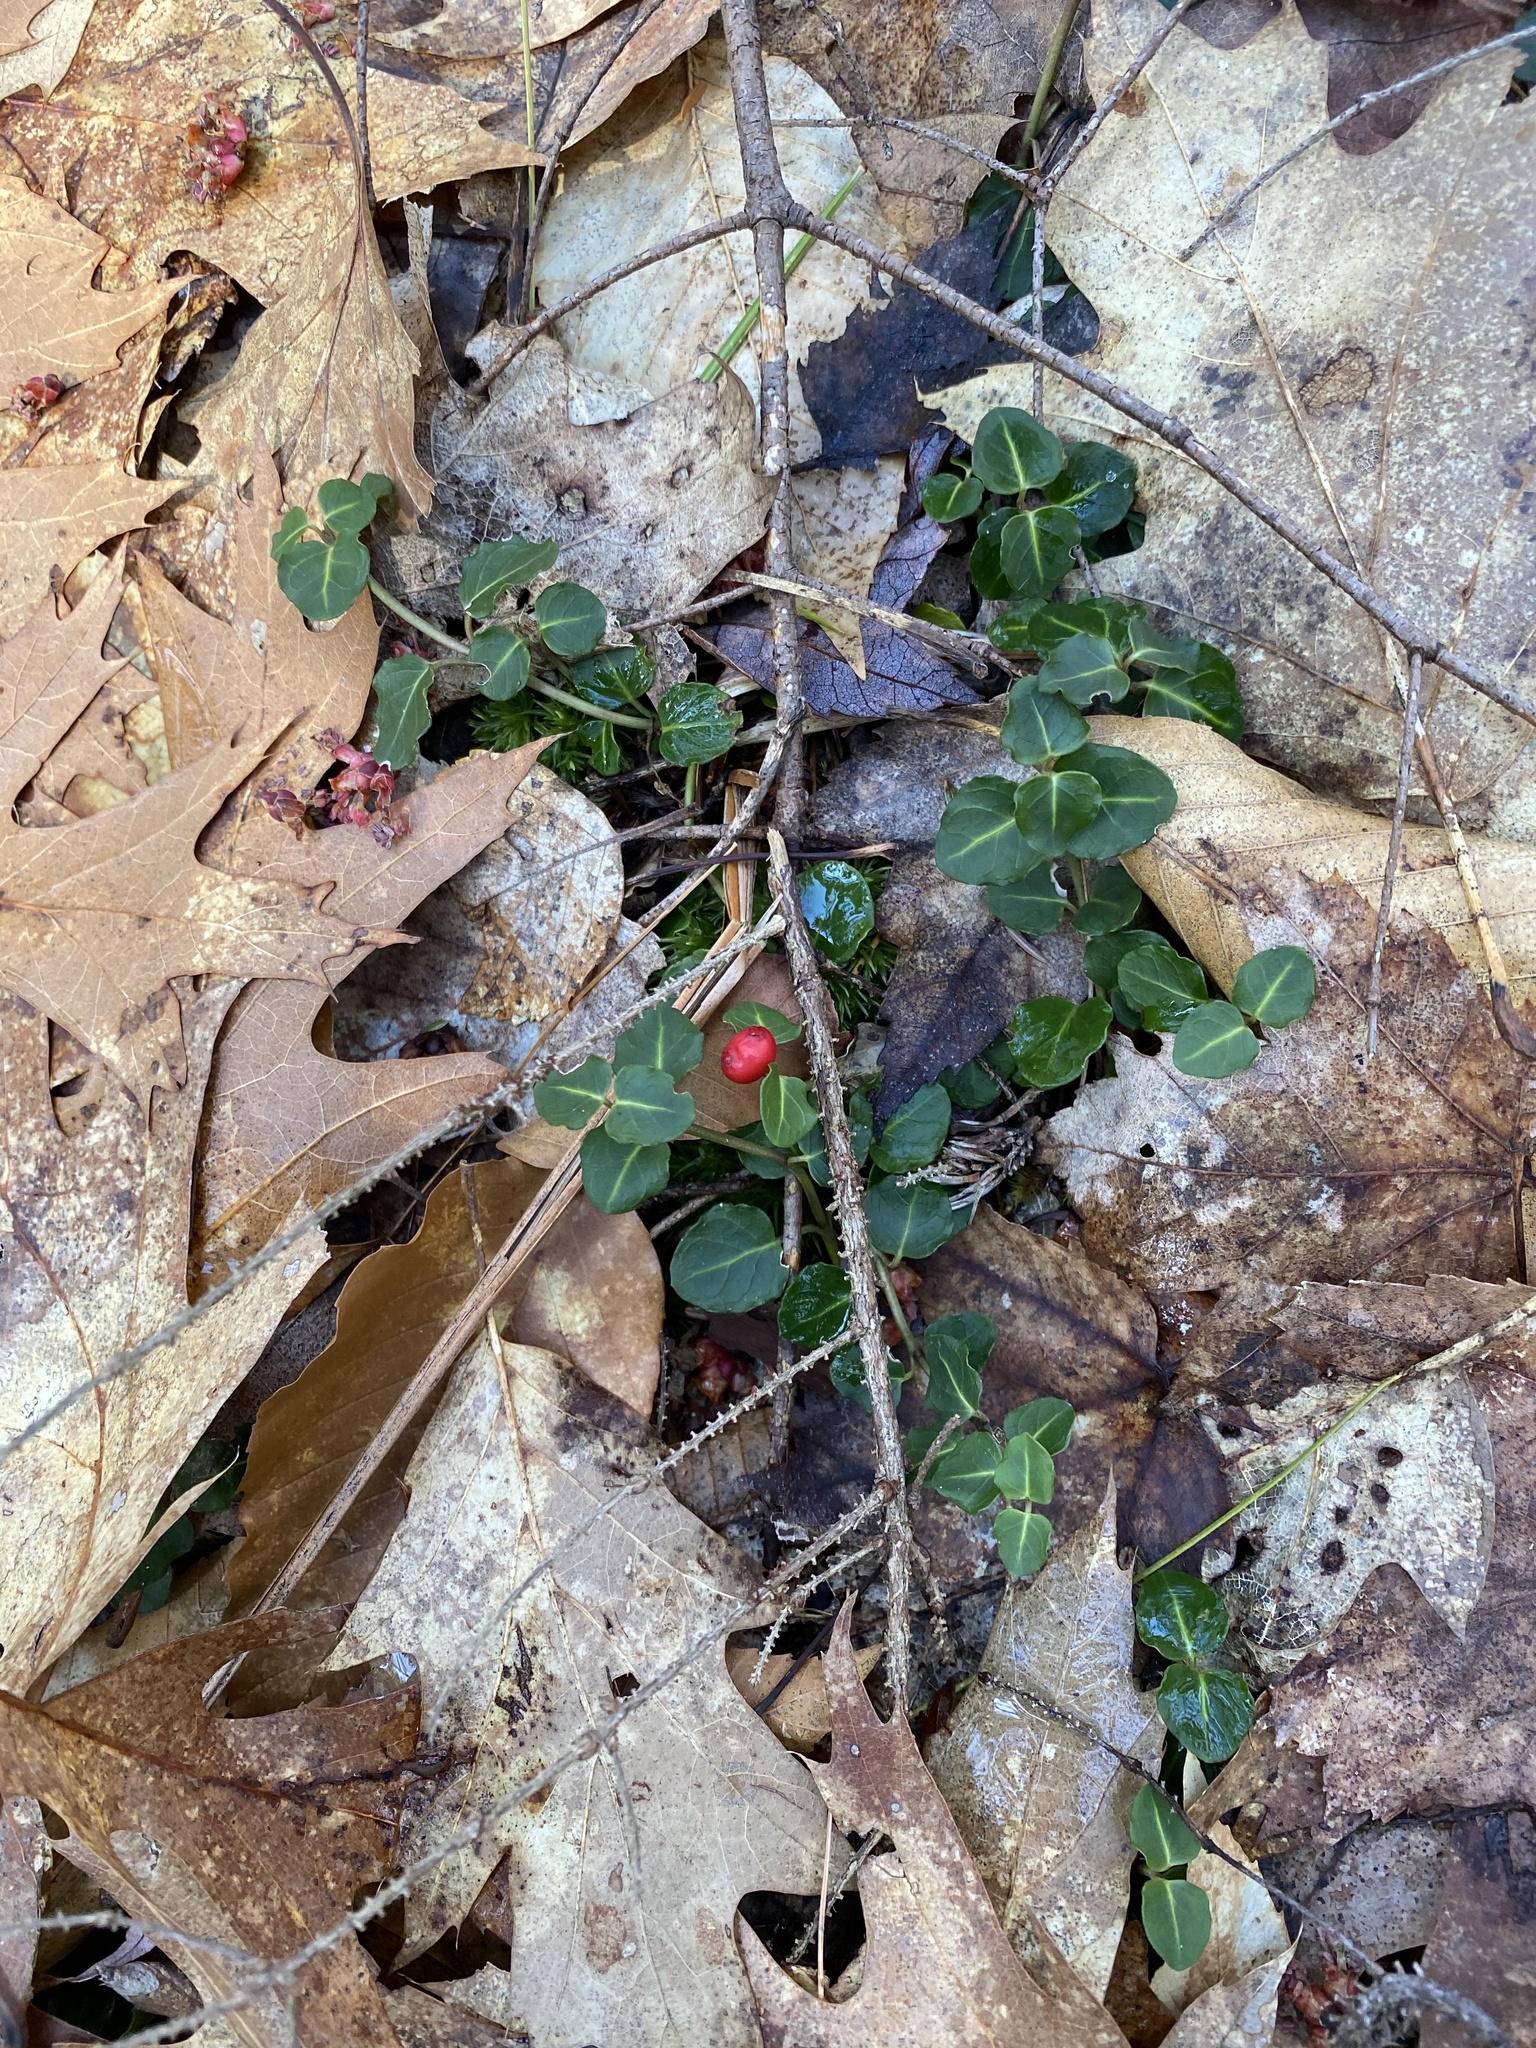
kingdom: Plantae
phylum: Tracheophyta
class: Magnoliopsida
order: Gentianales
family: Rubiaceae
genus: Mitchella
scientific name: Mitchella repens
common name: Partridge-berry
